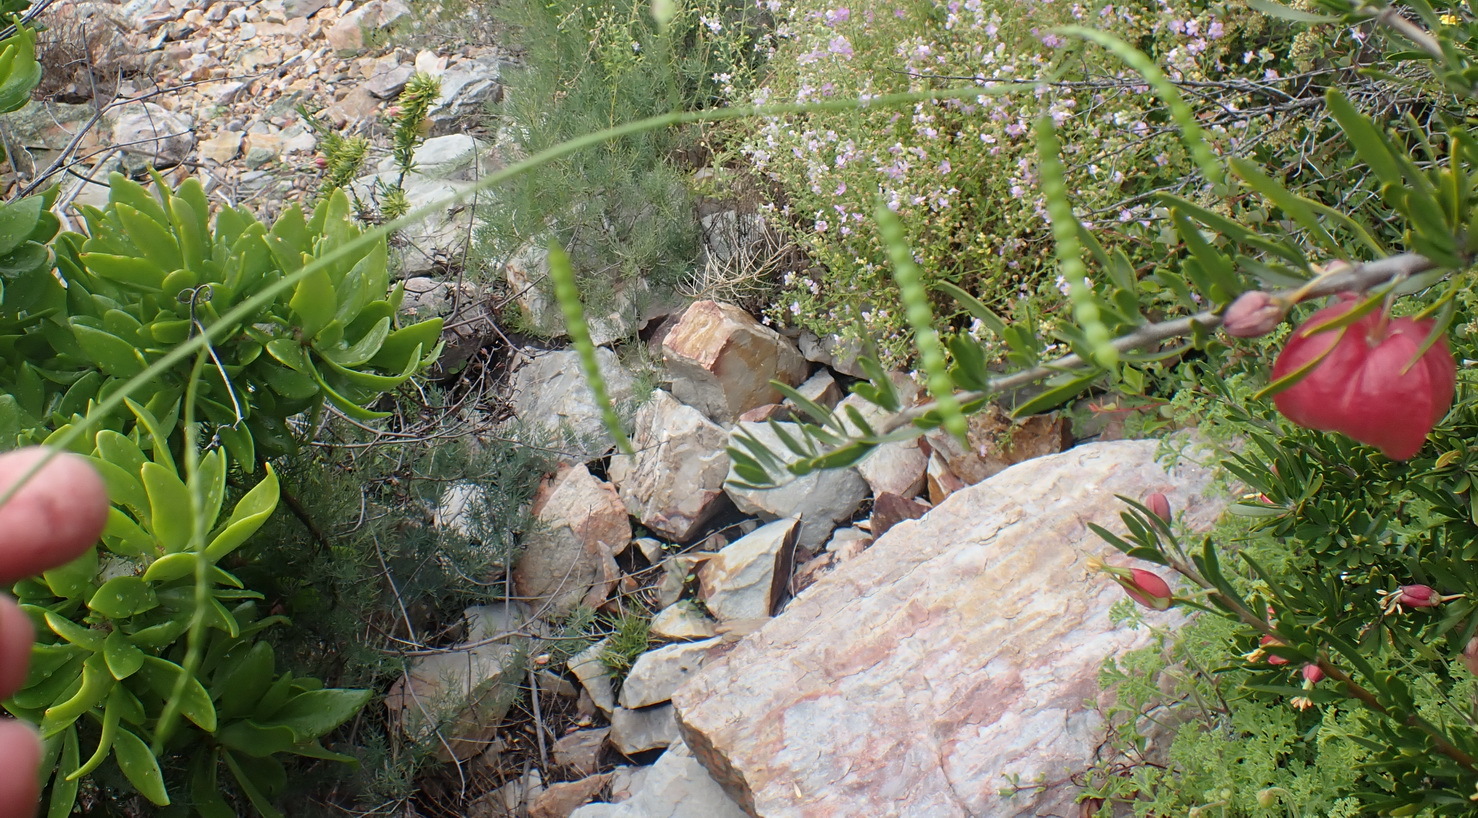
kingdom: Plantae
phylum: Tracheophyta
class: Magnoliopsida
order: Brassicales
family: Brassicaceae
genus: Heliophila
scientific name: Heliophila pendula
